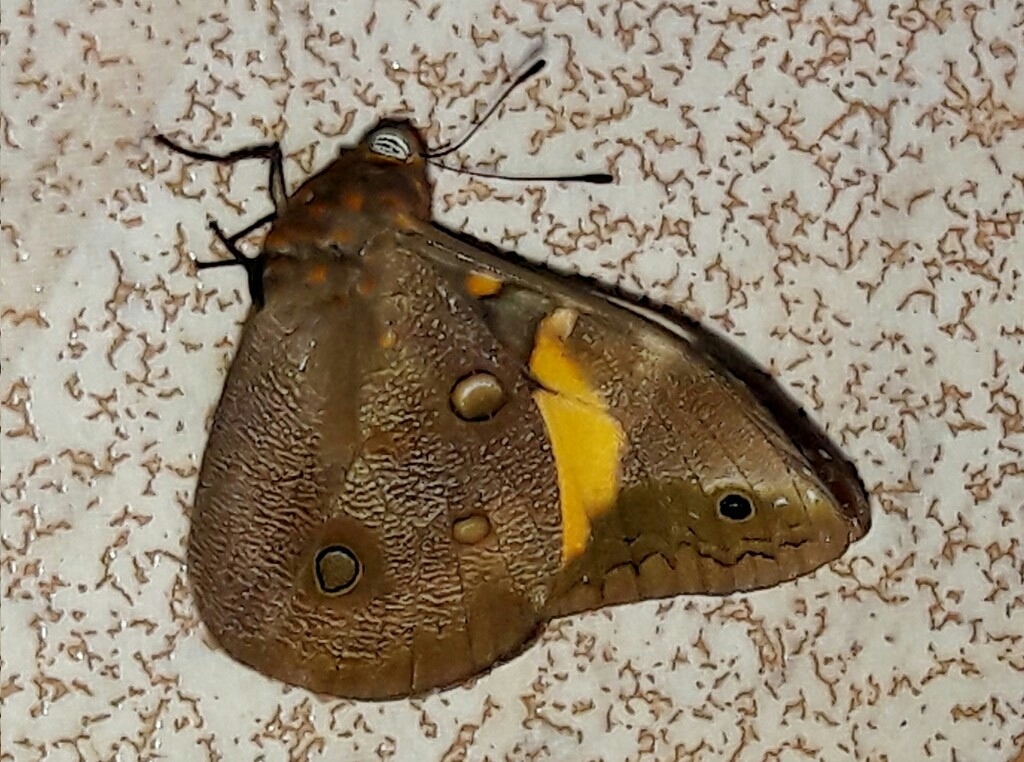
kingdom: Animalia
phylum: Arthropoda
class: Insecta
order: Lepidoptera
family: Nymphalidae
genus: Brassolis
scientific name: Brassolis sophorae
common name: Coconut caterpillar
